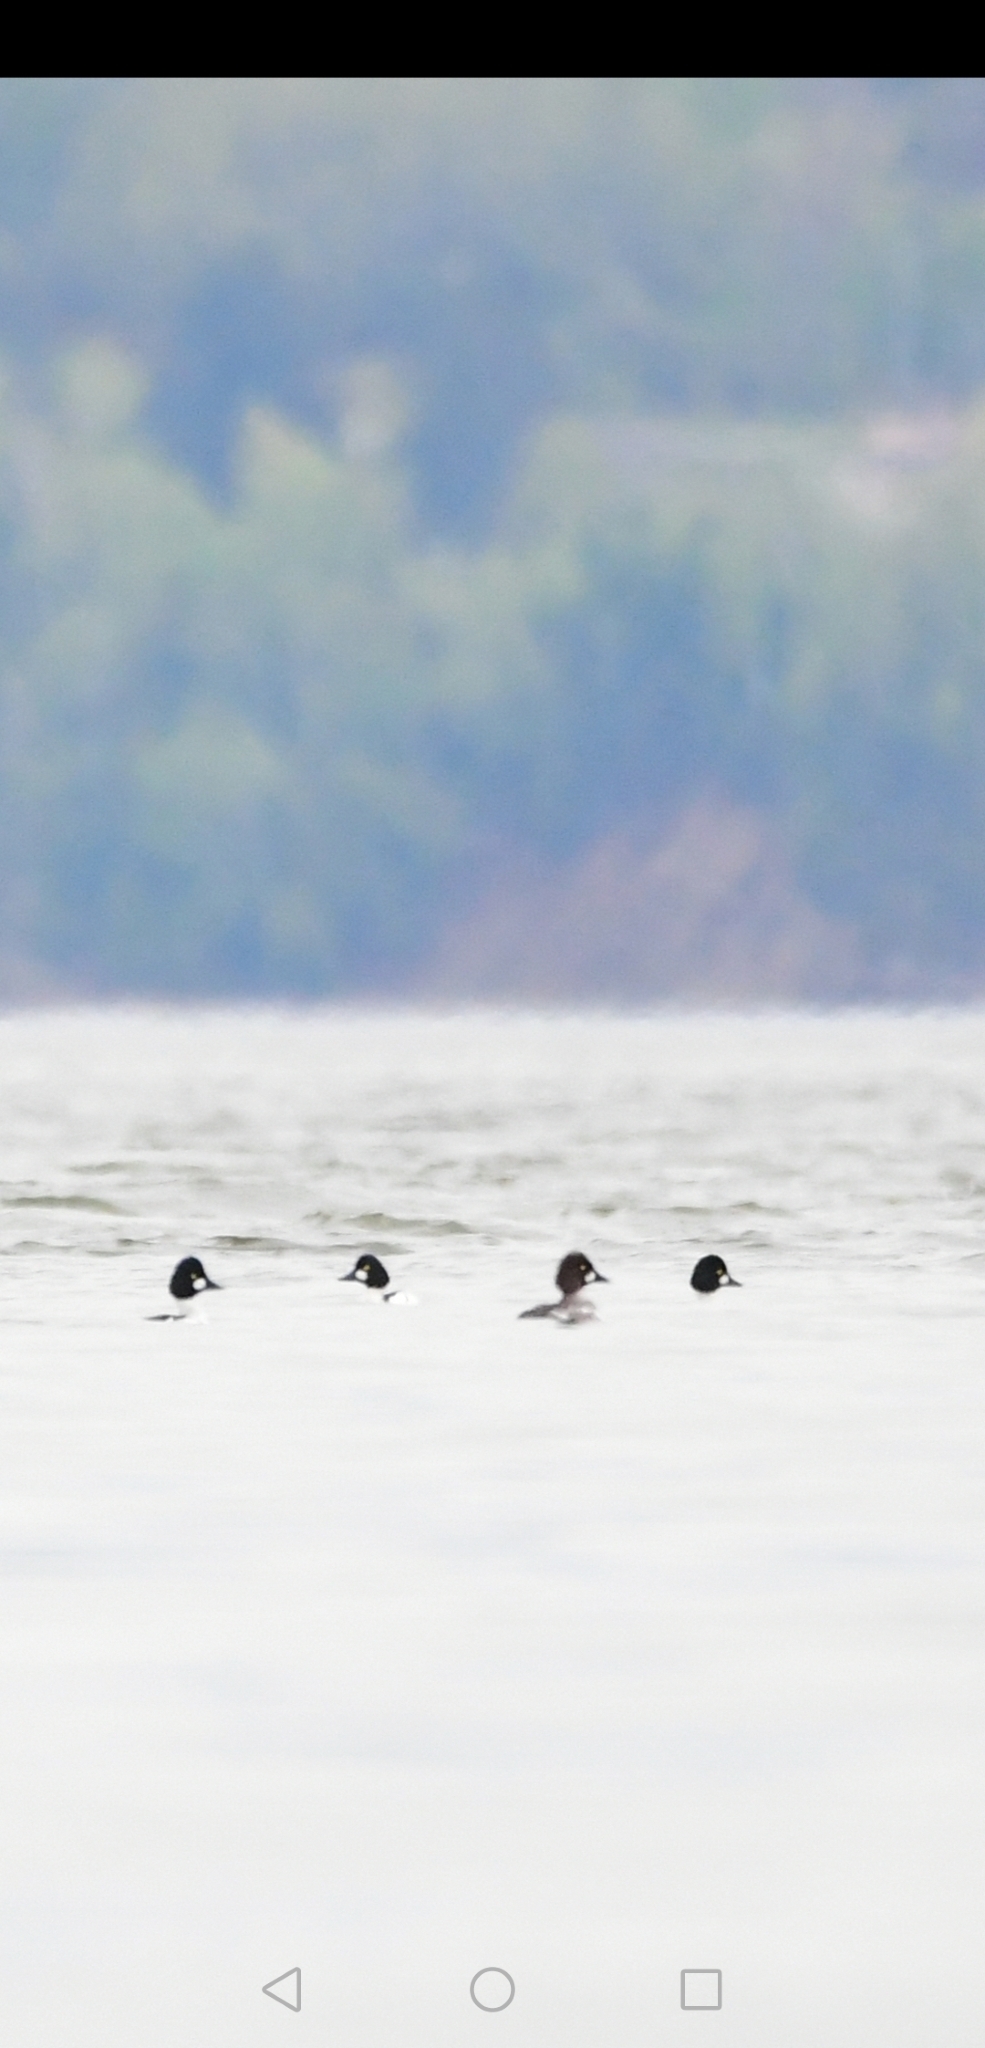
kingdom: Animalia
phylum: Chordata
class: Aves
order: Anseriformes
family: Anatidae
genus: Bucephala
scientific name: Bucephala clangula
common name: Common goldeneye
